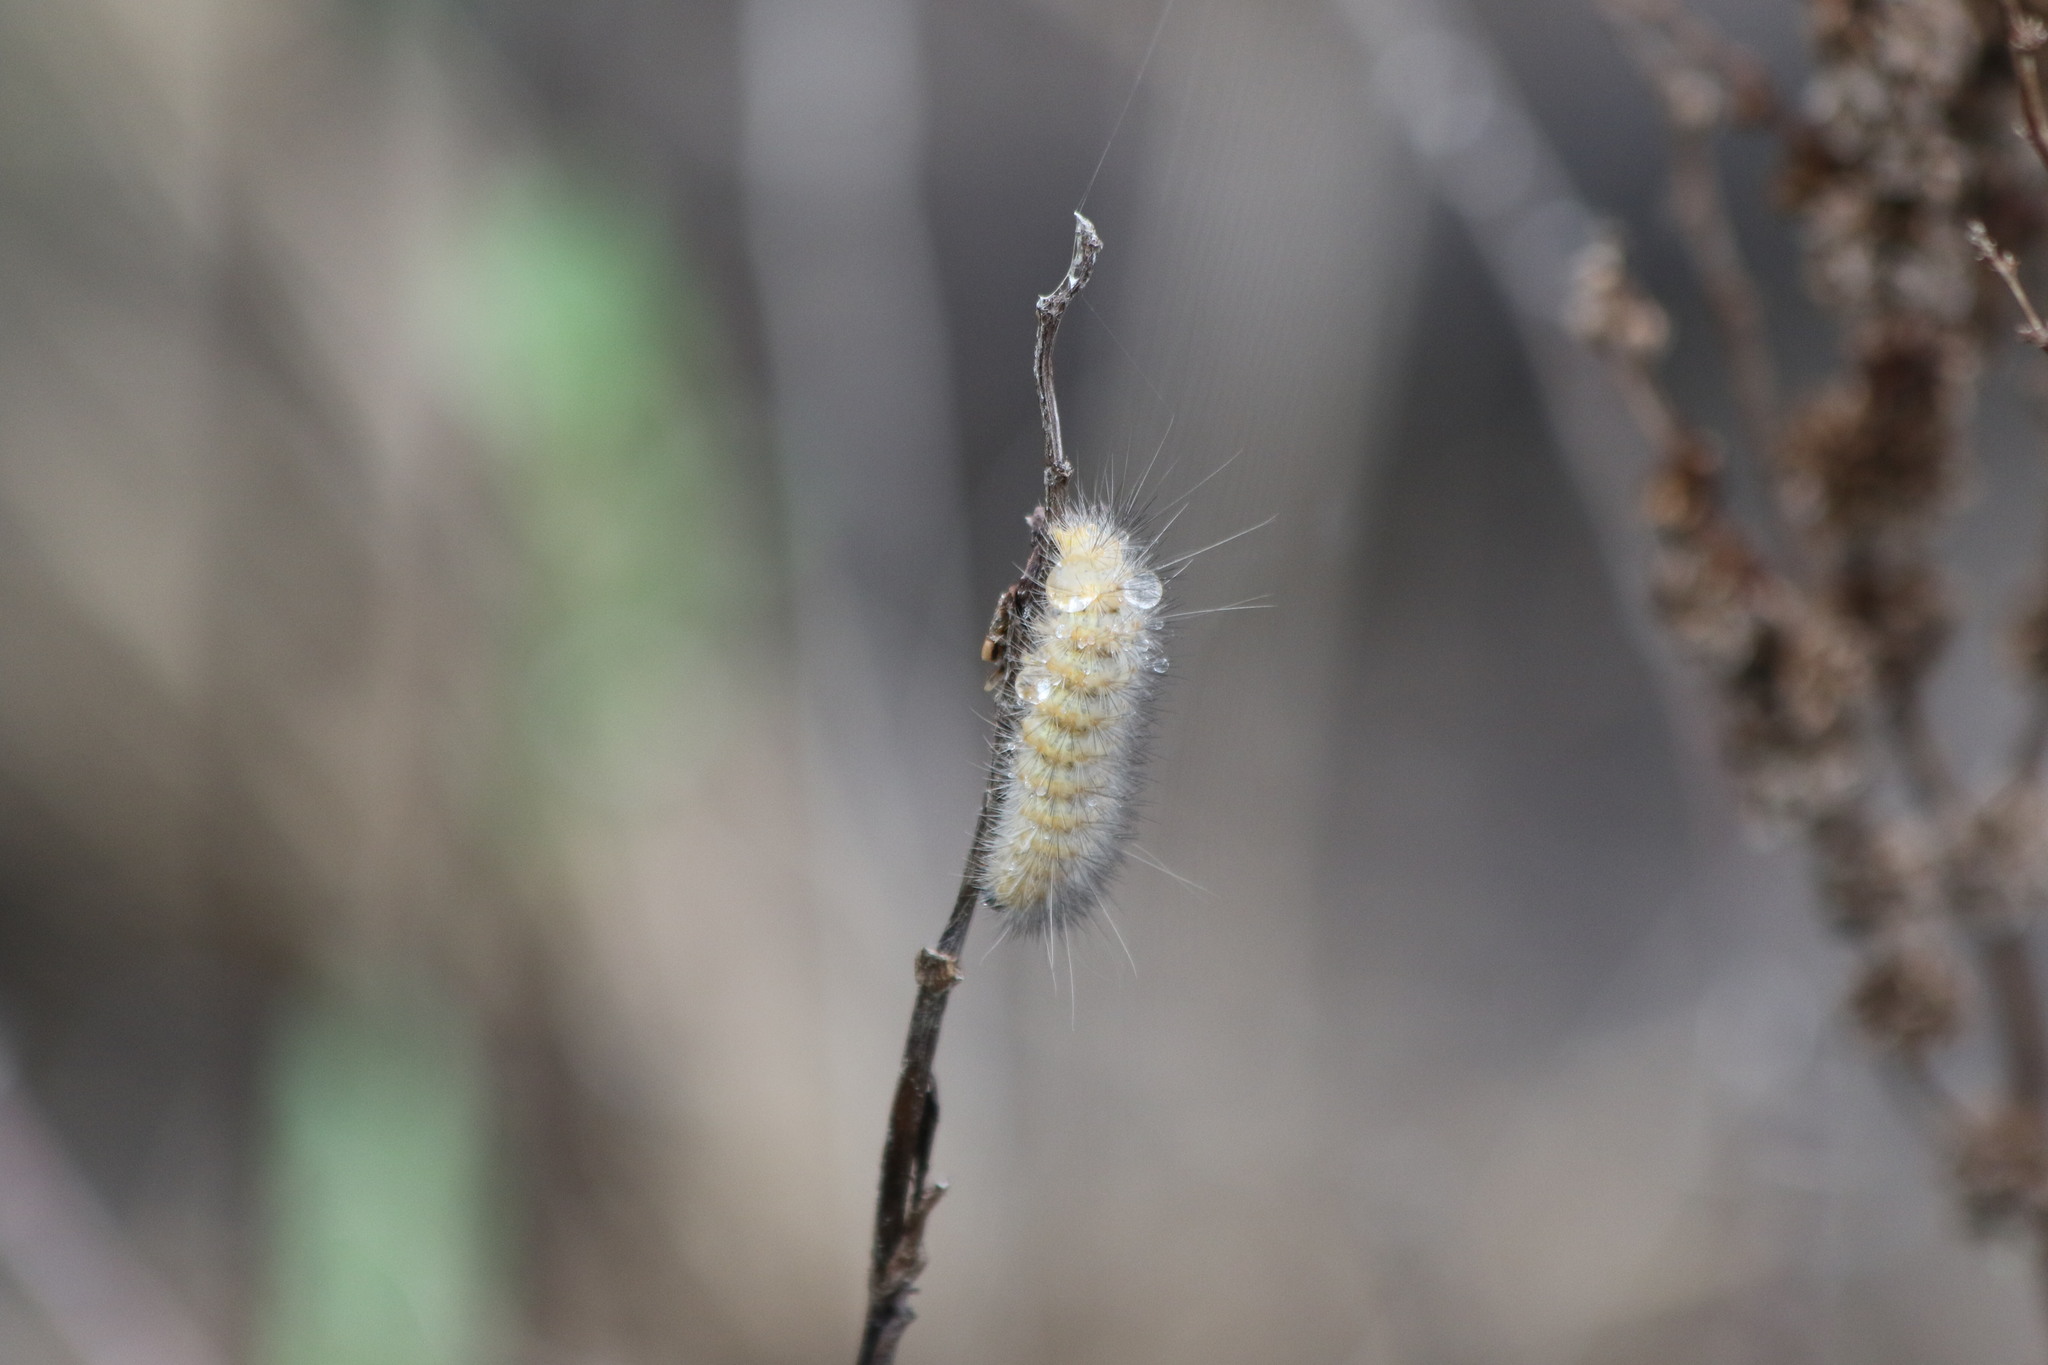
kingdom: Animalia
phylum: Arthropoda
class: Insecta
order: Lepidoptera
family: Erebidae
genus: Estigmene
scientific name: Estigmene acrea
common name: Salt marsh moth
